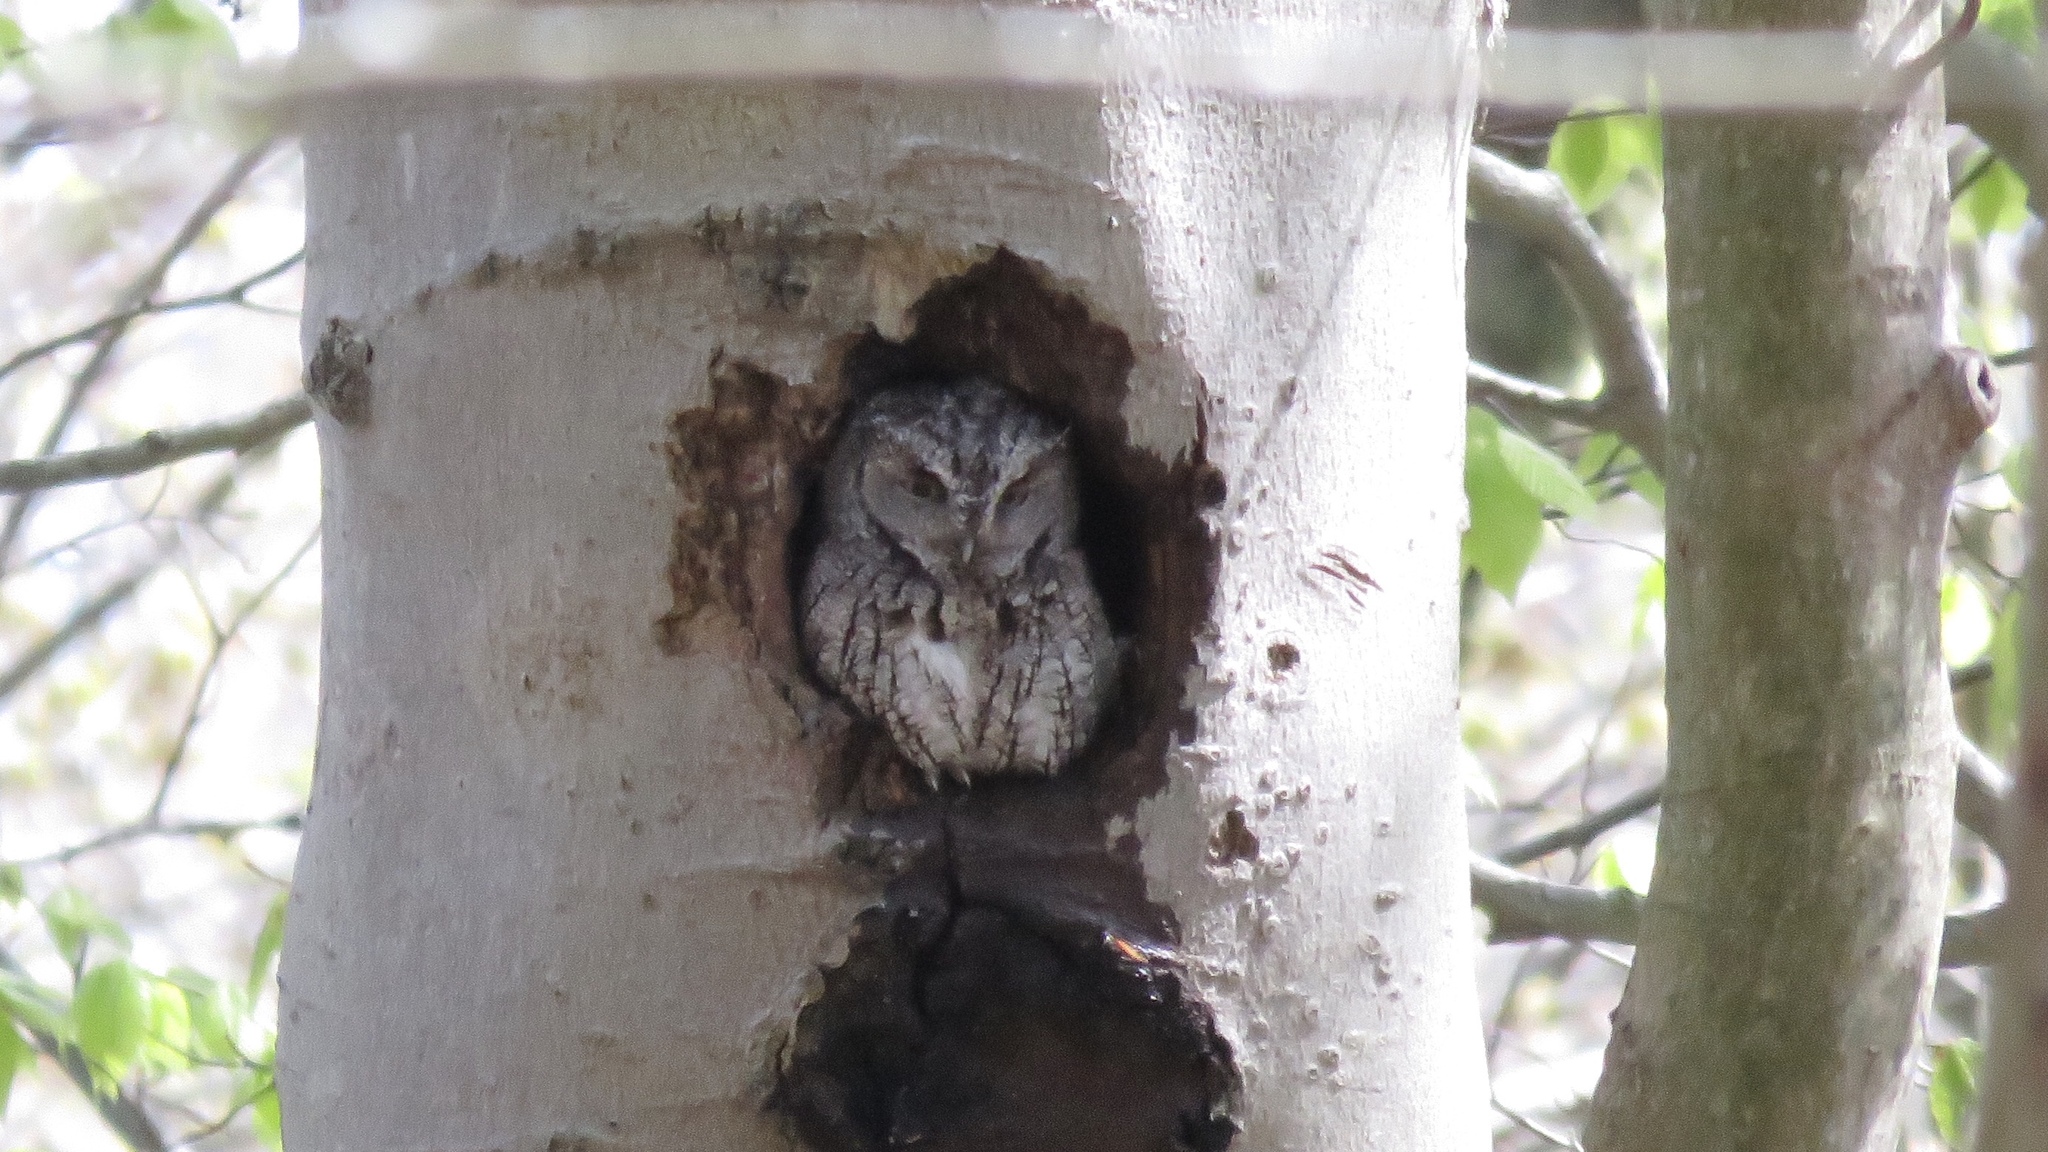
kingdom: Animalia
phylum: Chordata
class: Aves
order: Strigiformes
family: Strigidae
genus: Megascops
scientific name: Megascops asio
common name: Eastern screech-owl
